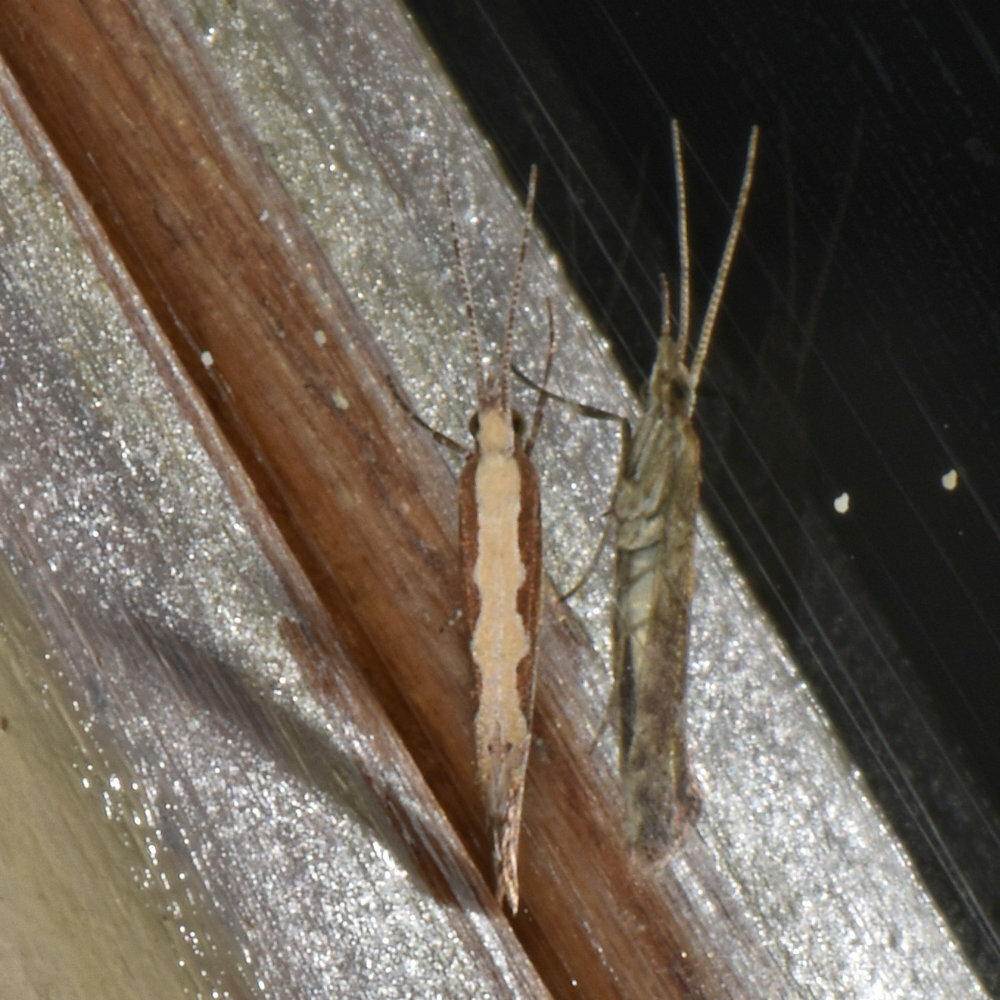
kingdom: Animalia
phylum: Arthropoda
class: Insecta
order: Lepidoptera
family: Plutellidae
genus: Plutella
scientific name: Plutella xylostella
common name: Diamond-back moth
